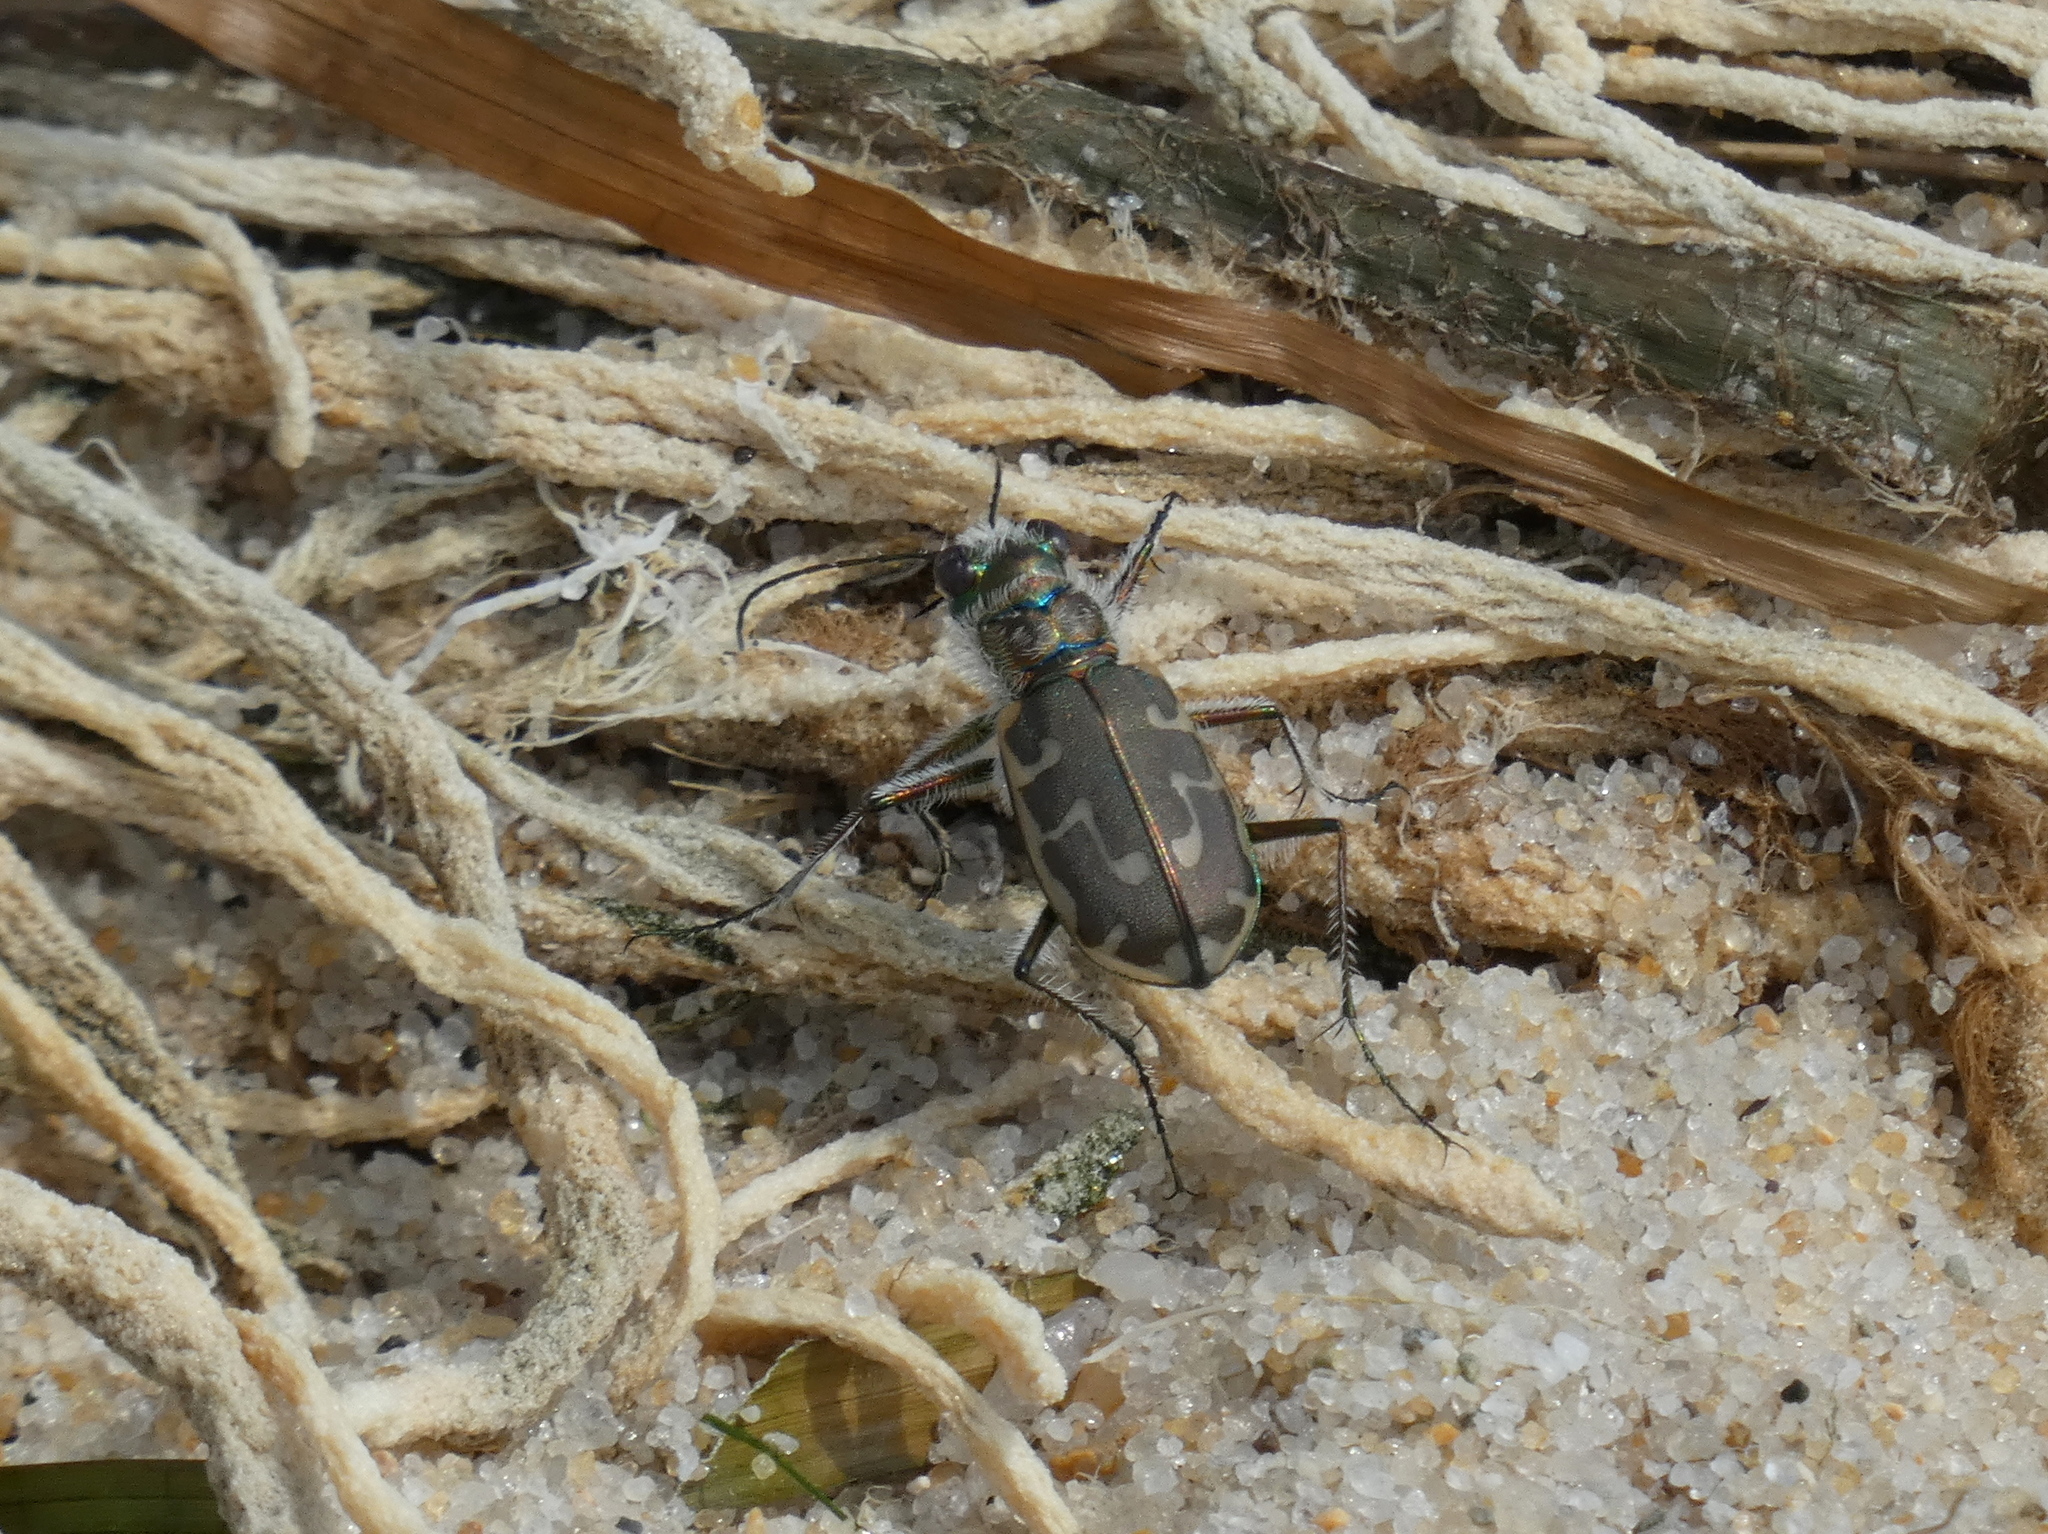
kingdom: Animalia
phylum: Arthropoda
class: Insecta
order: Coleoptera
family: Carabidae
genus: Cicindela
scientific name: Cicindela hirticollis
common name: Hairy-necked tiger beetle
